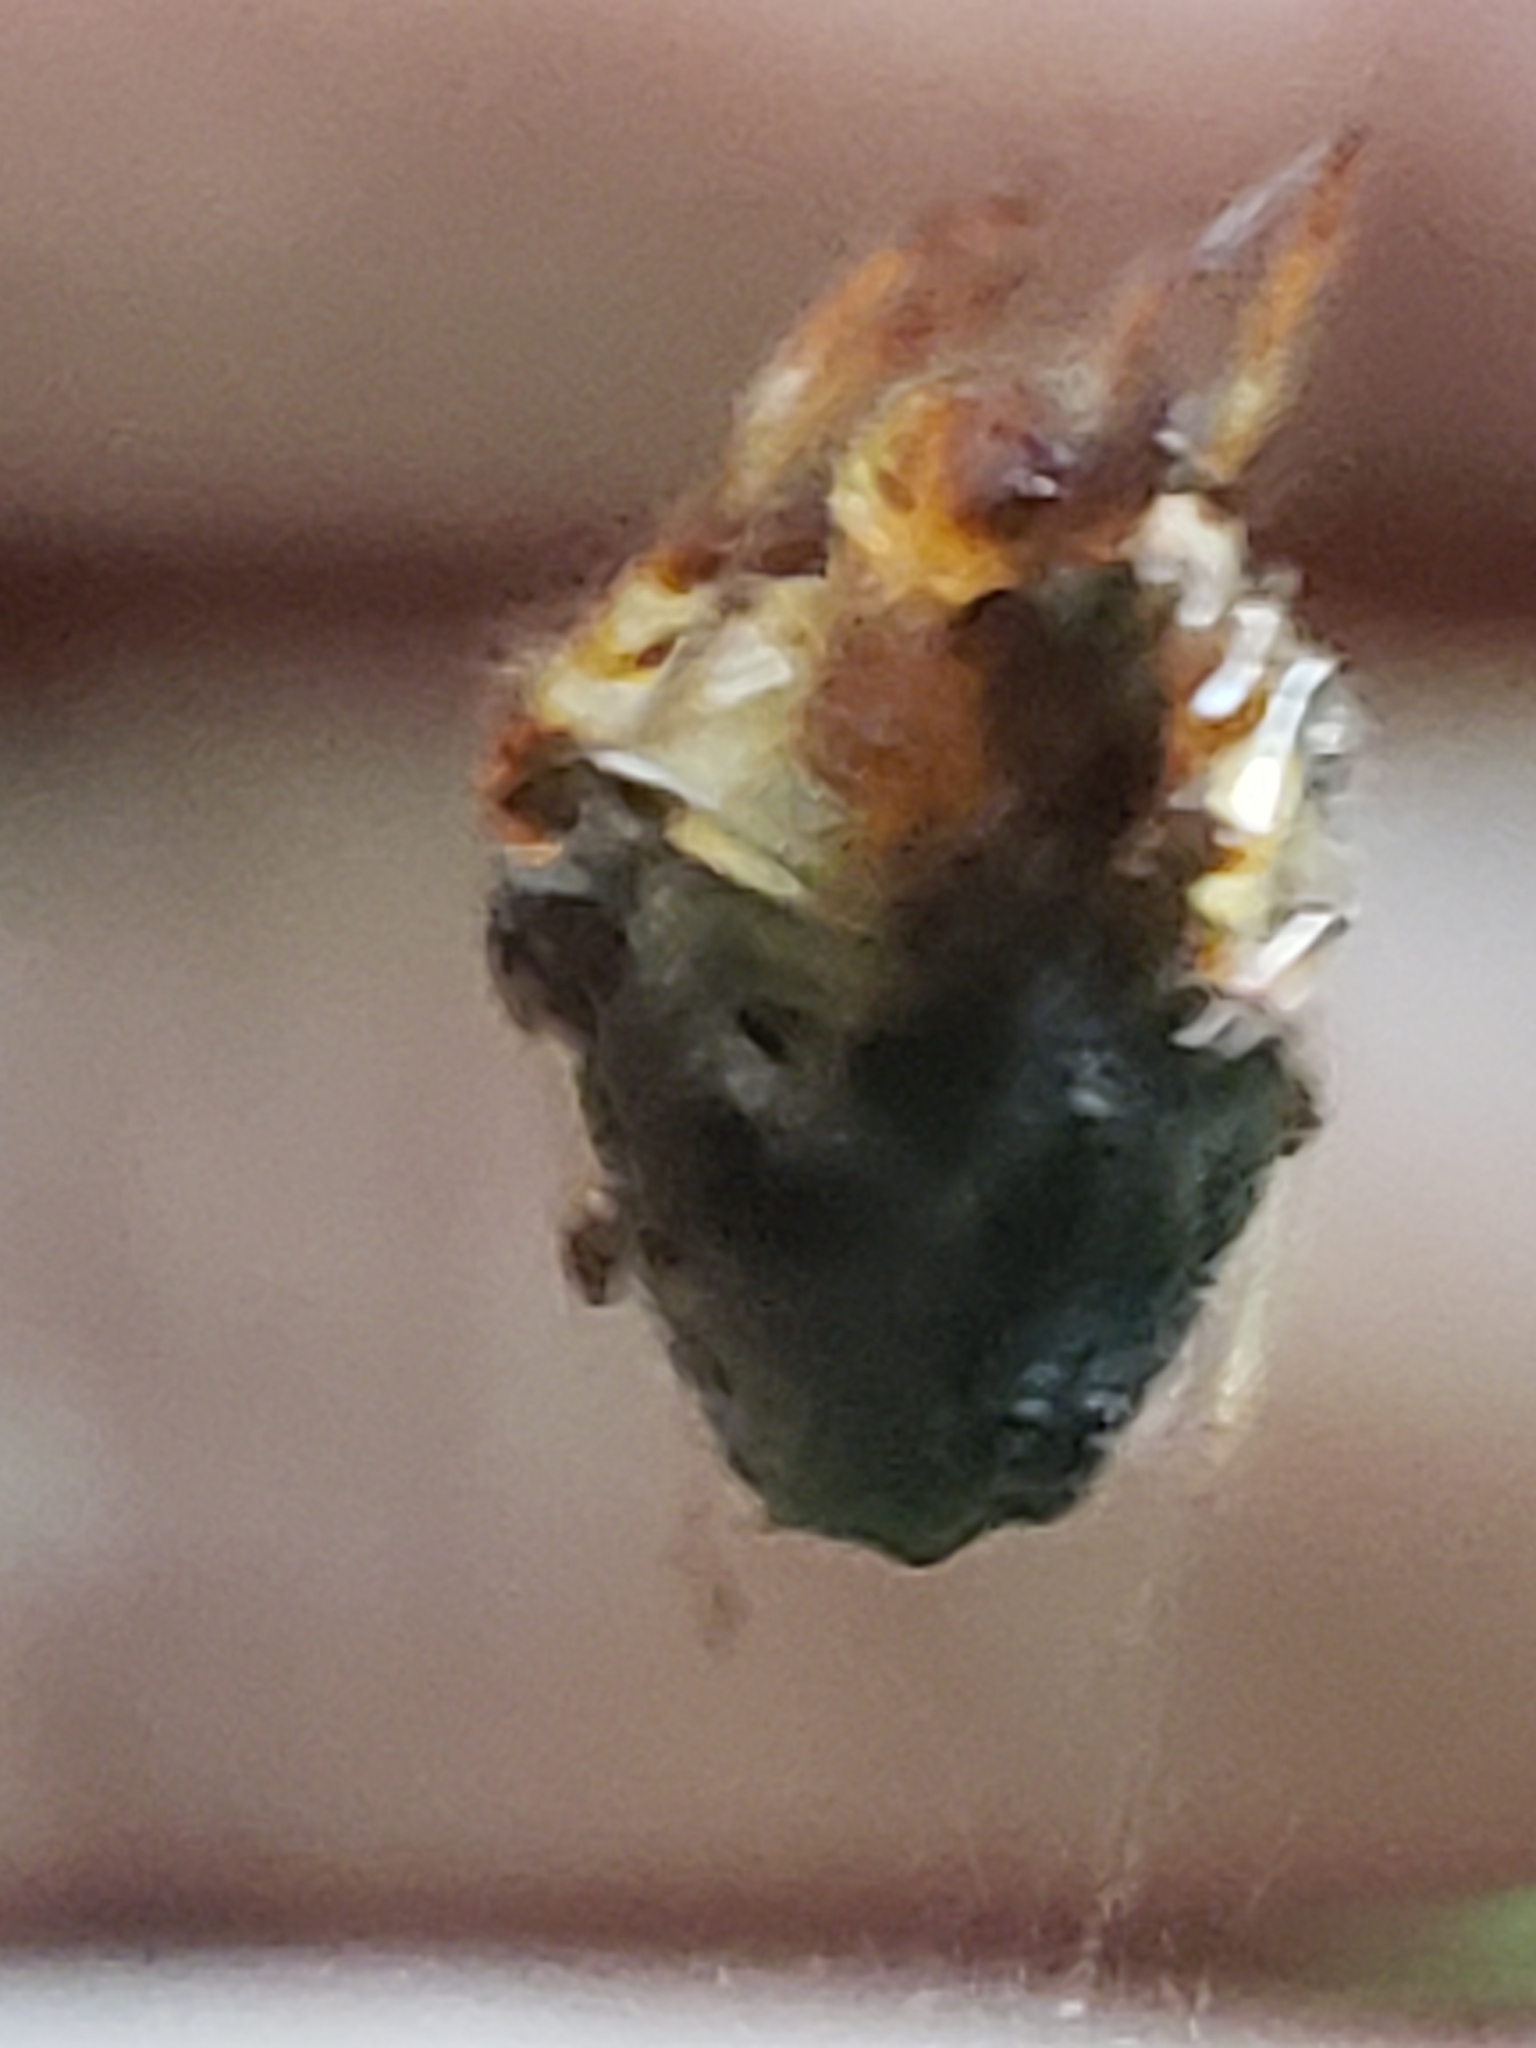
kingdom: Animalia
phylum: Arthropoda
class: Arachnida
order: Araneae
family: Araneidae
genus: Verrucosa
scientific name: Verrucosa arenata
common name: Orb weavers
